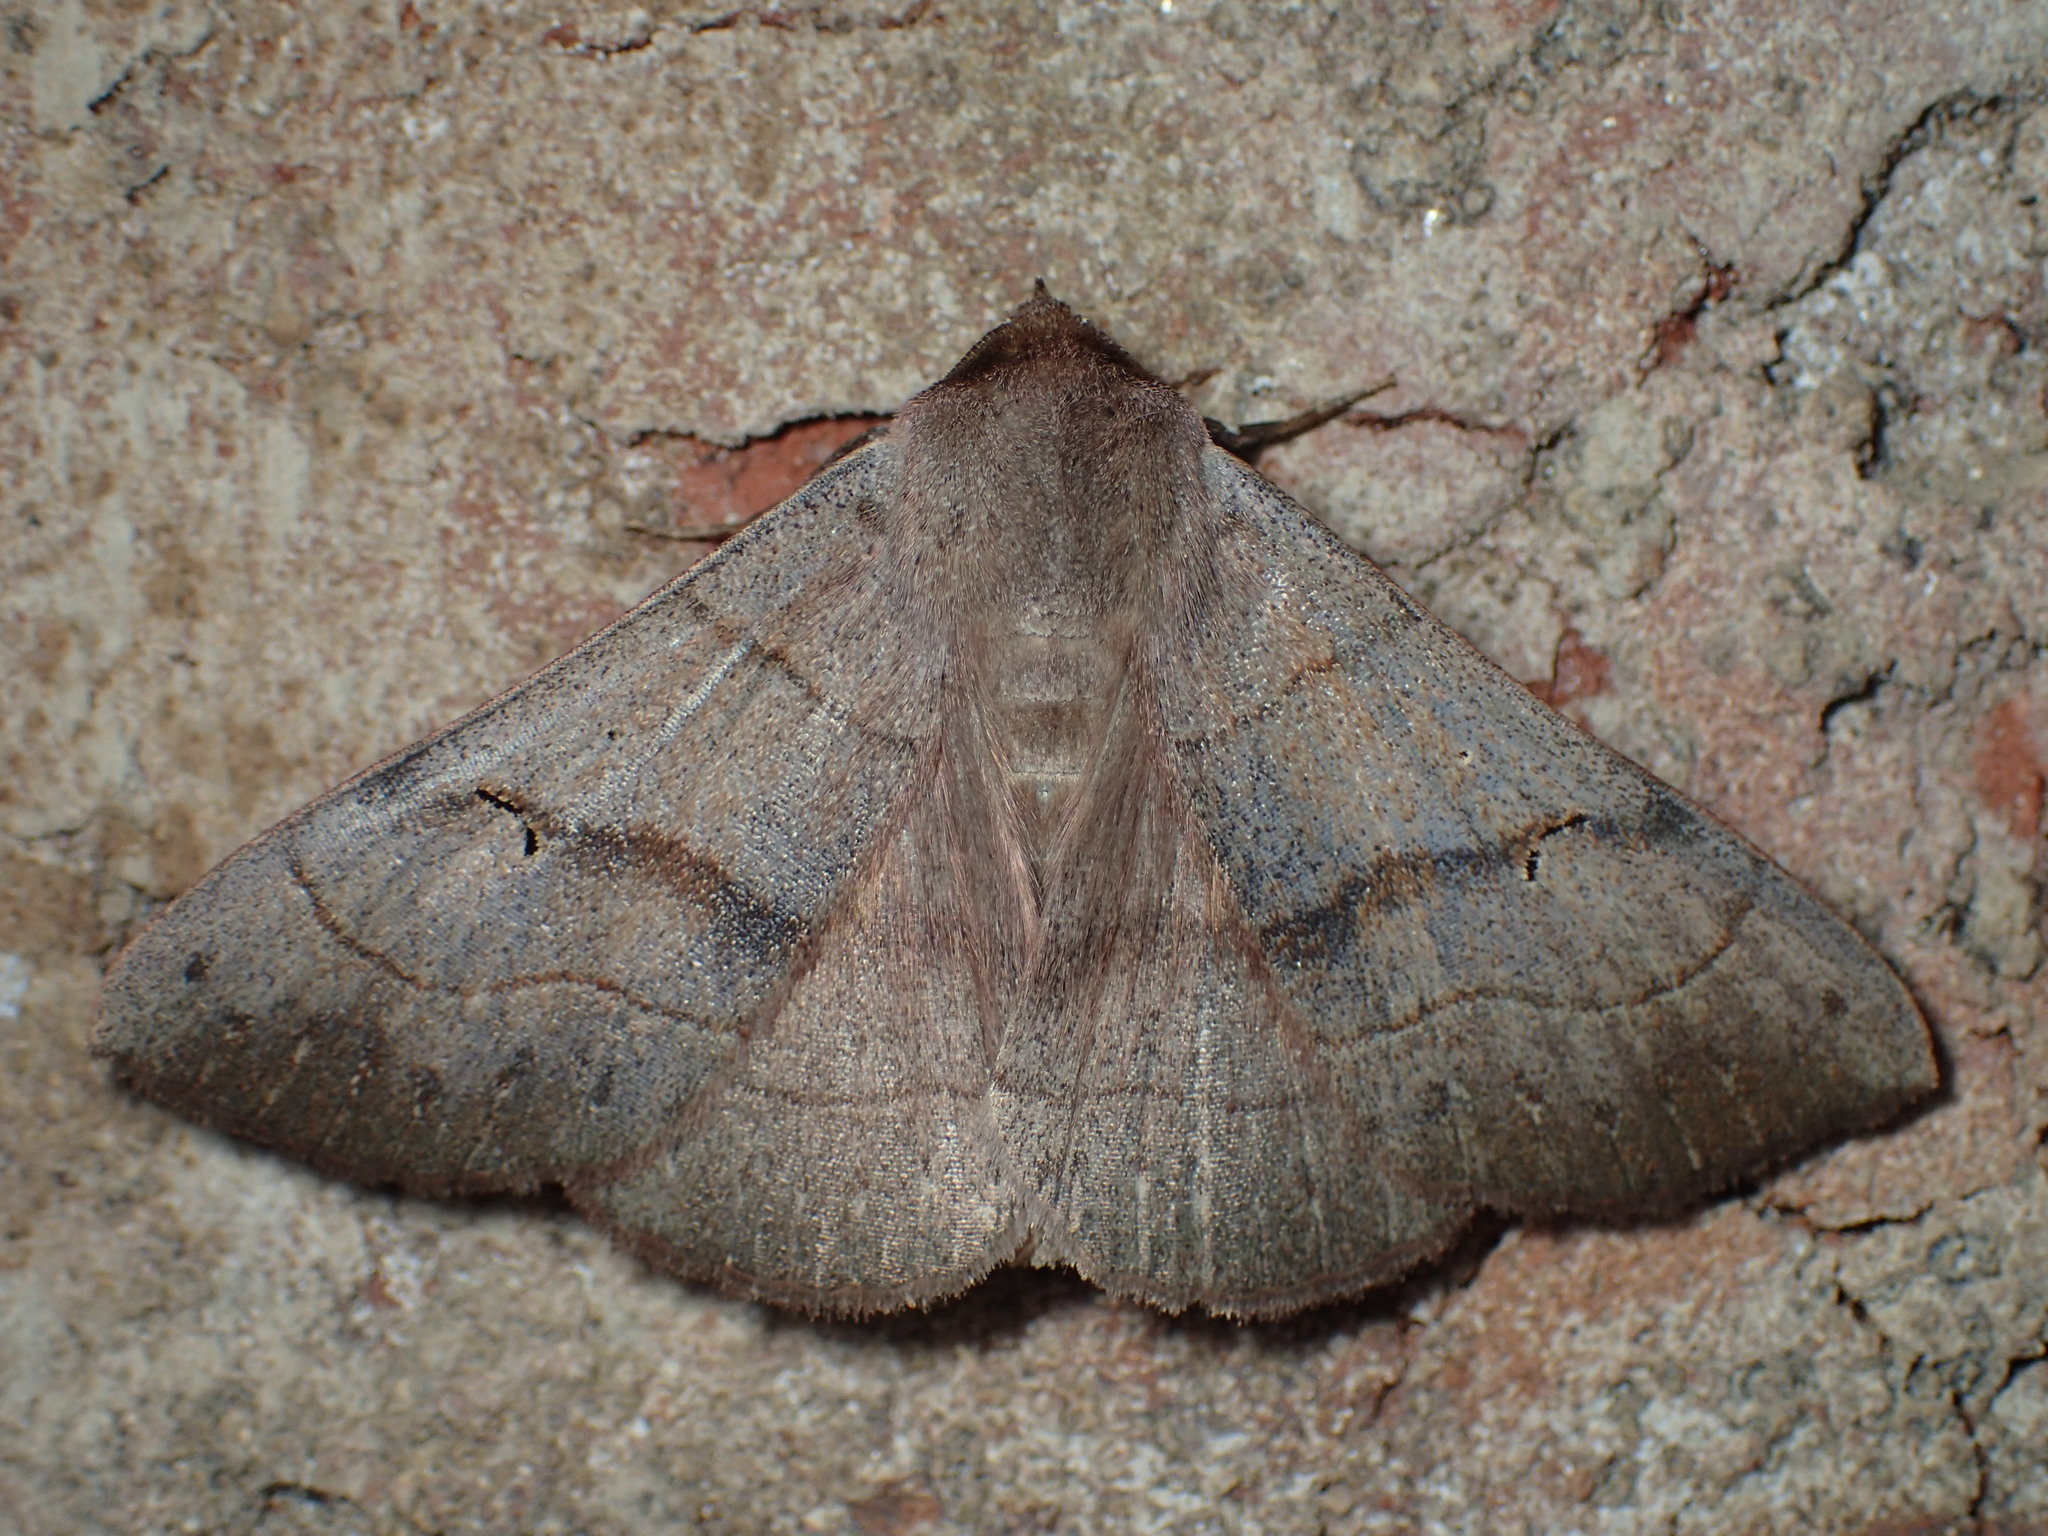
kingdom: Animalia
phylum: Arthropoda
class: Insecta
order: Lepidoptera
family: Erebidae
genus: Panopoda
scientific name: Panopoda carneicosta
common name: Brown panopoda moth
